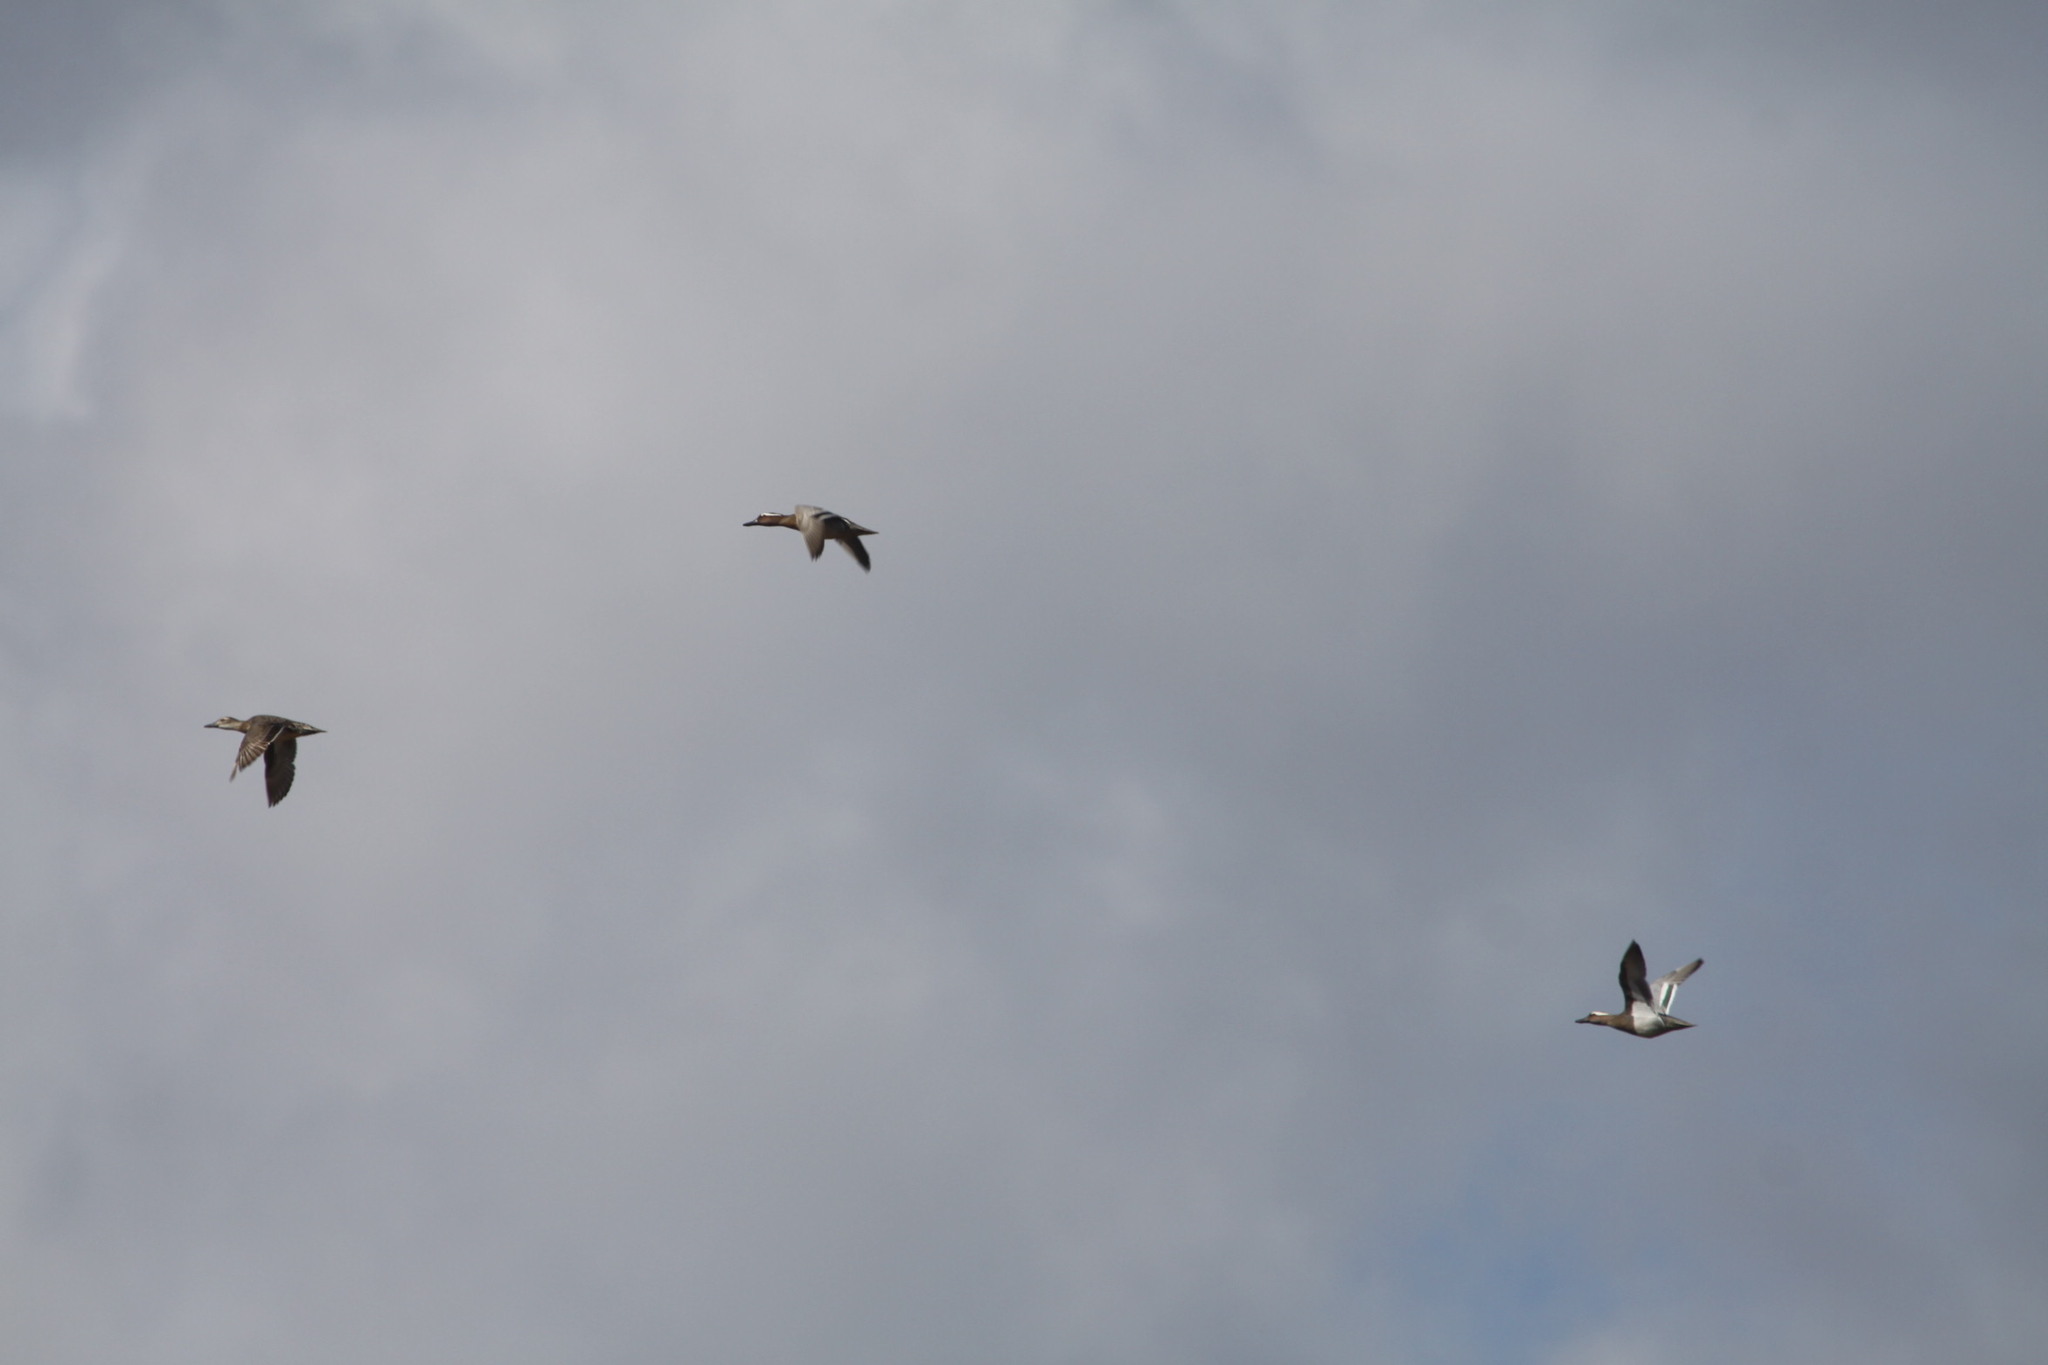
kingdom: Animalia
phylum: Chordata
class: Aves
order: Anseriformes
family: Anatidae
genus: Spatula
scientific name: Spatula querquedula
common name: Garganey
